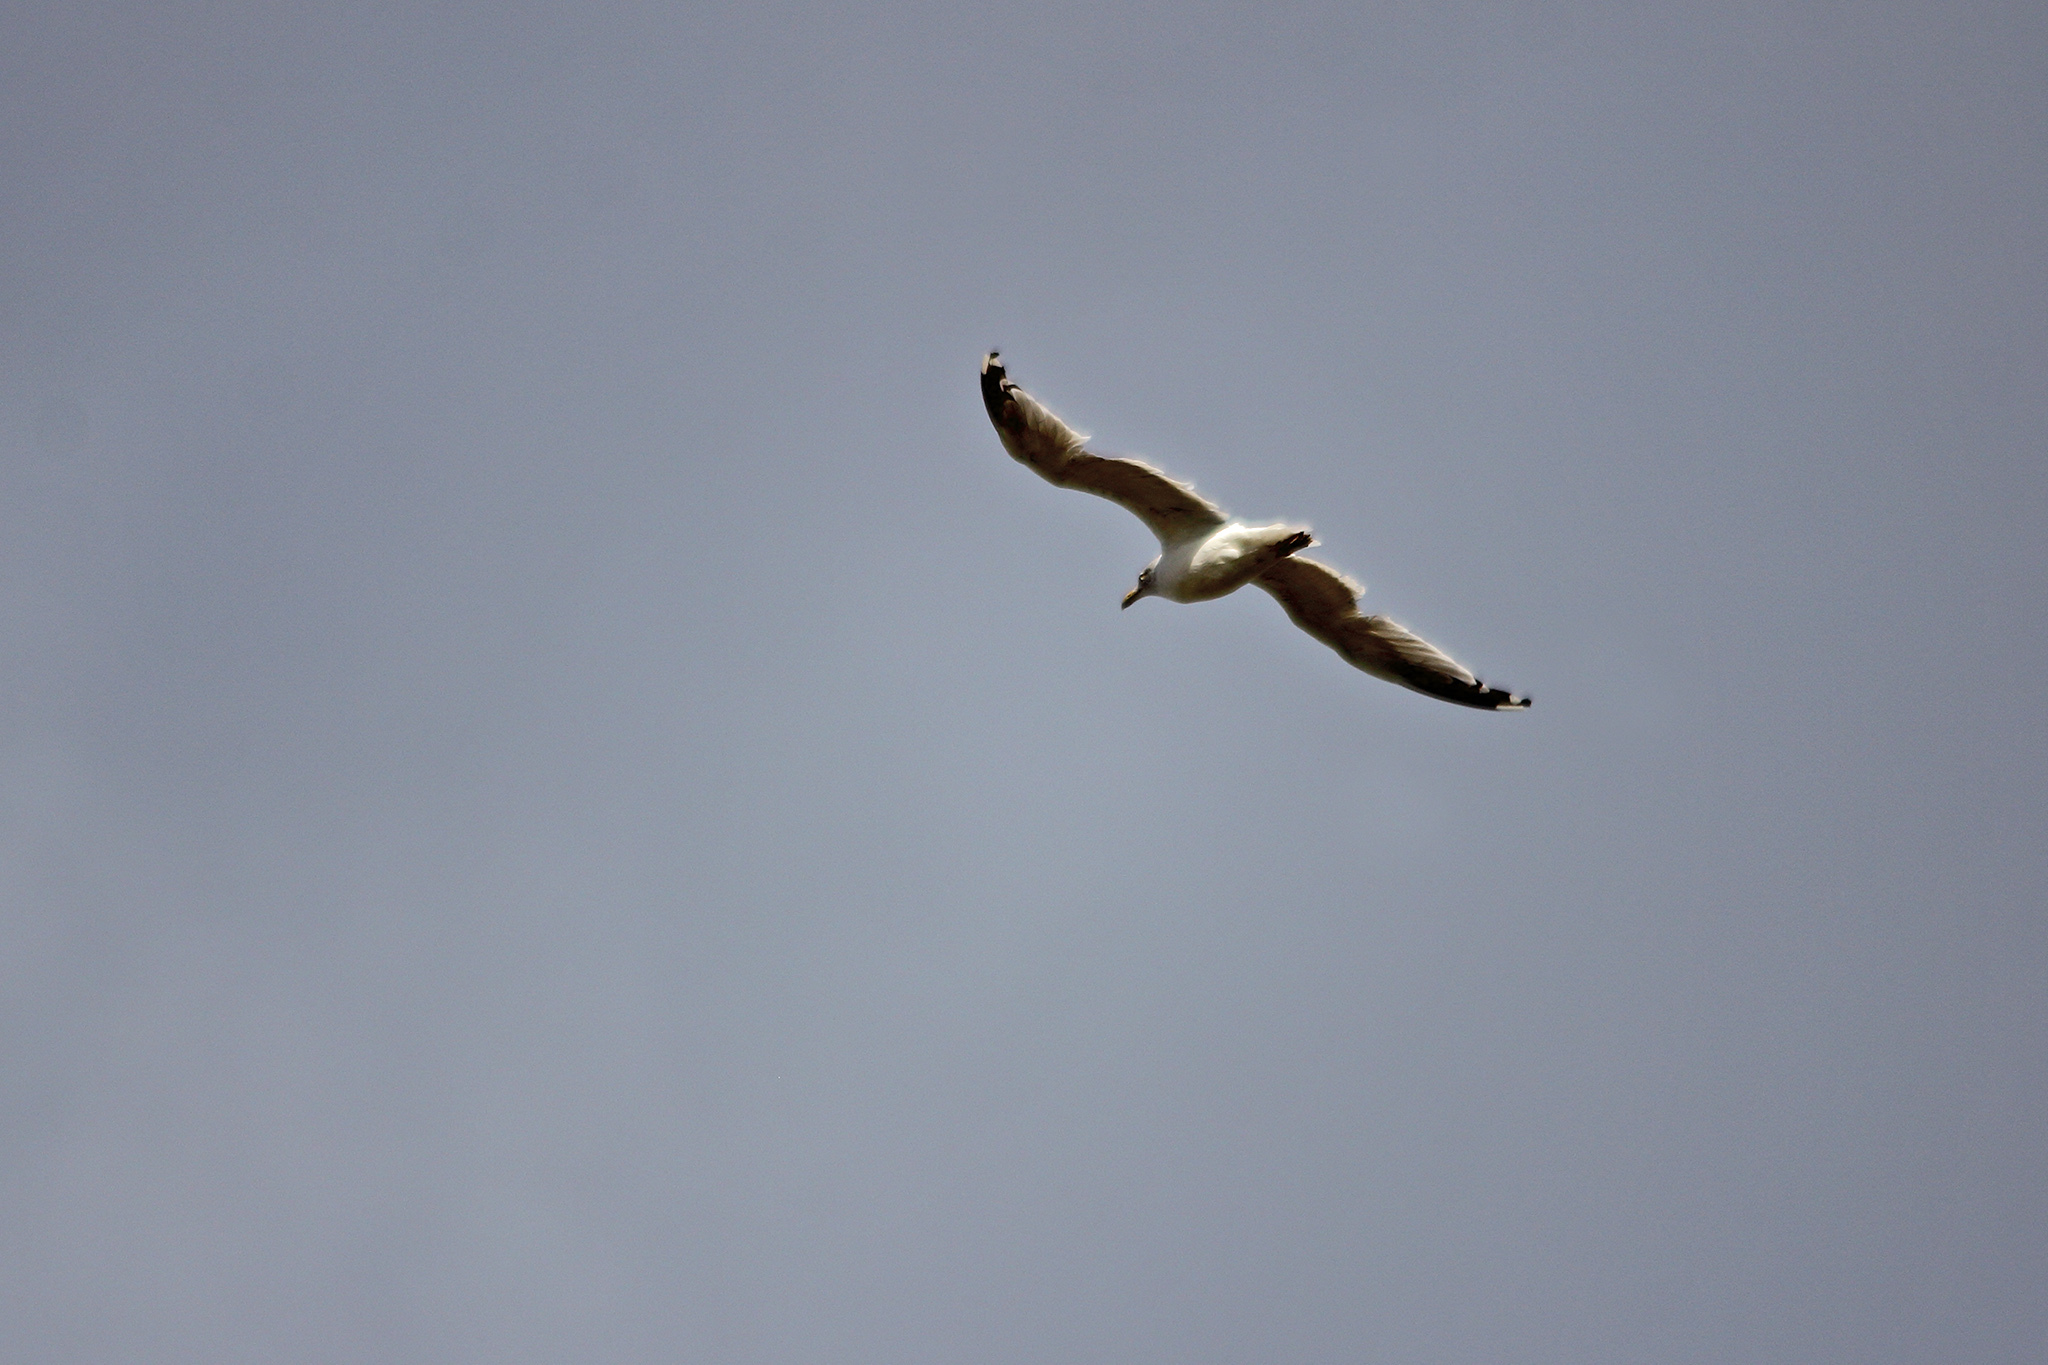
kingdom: Animalia
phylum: Chordata
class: Aves
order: Charadriiformes
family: Laridae
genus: Larus
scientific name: Larus argentatus
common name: Herring gull
